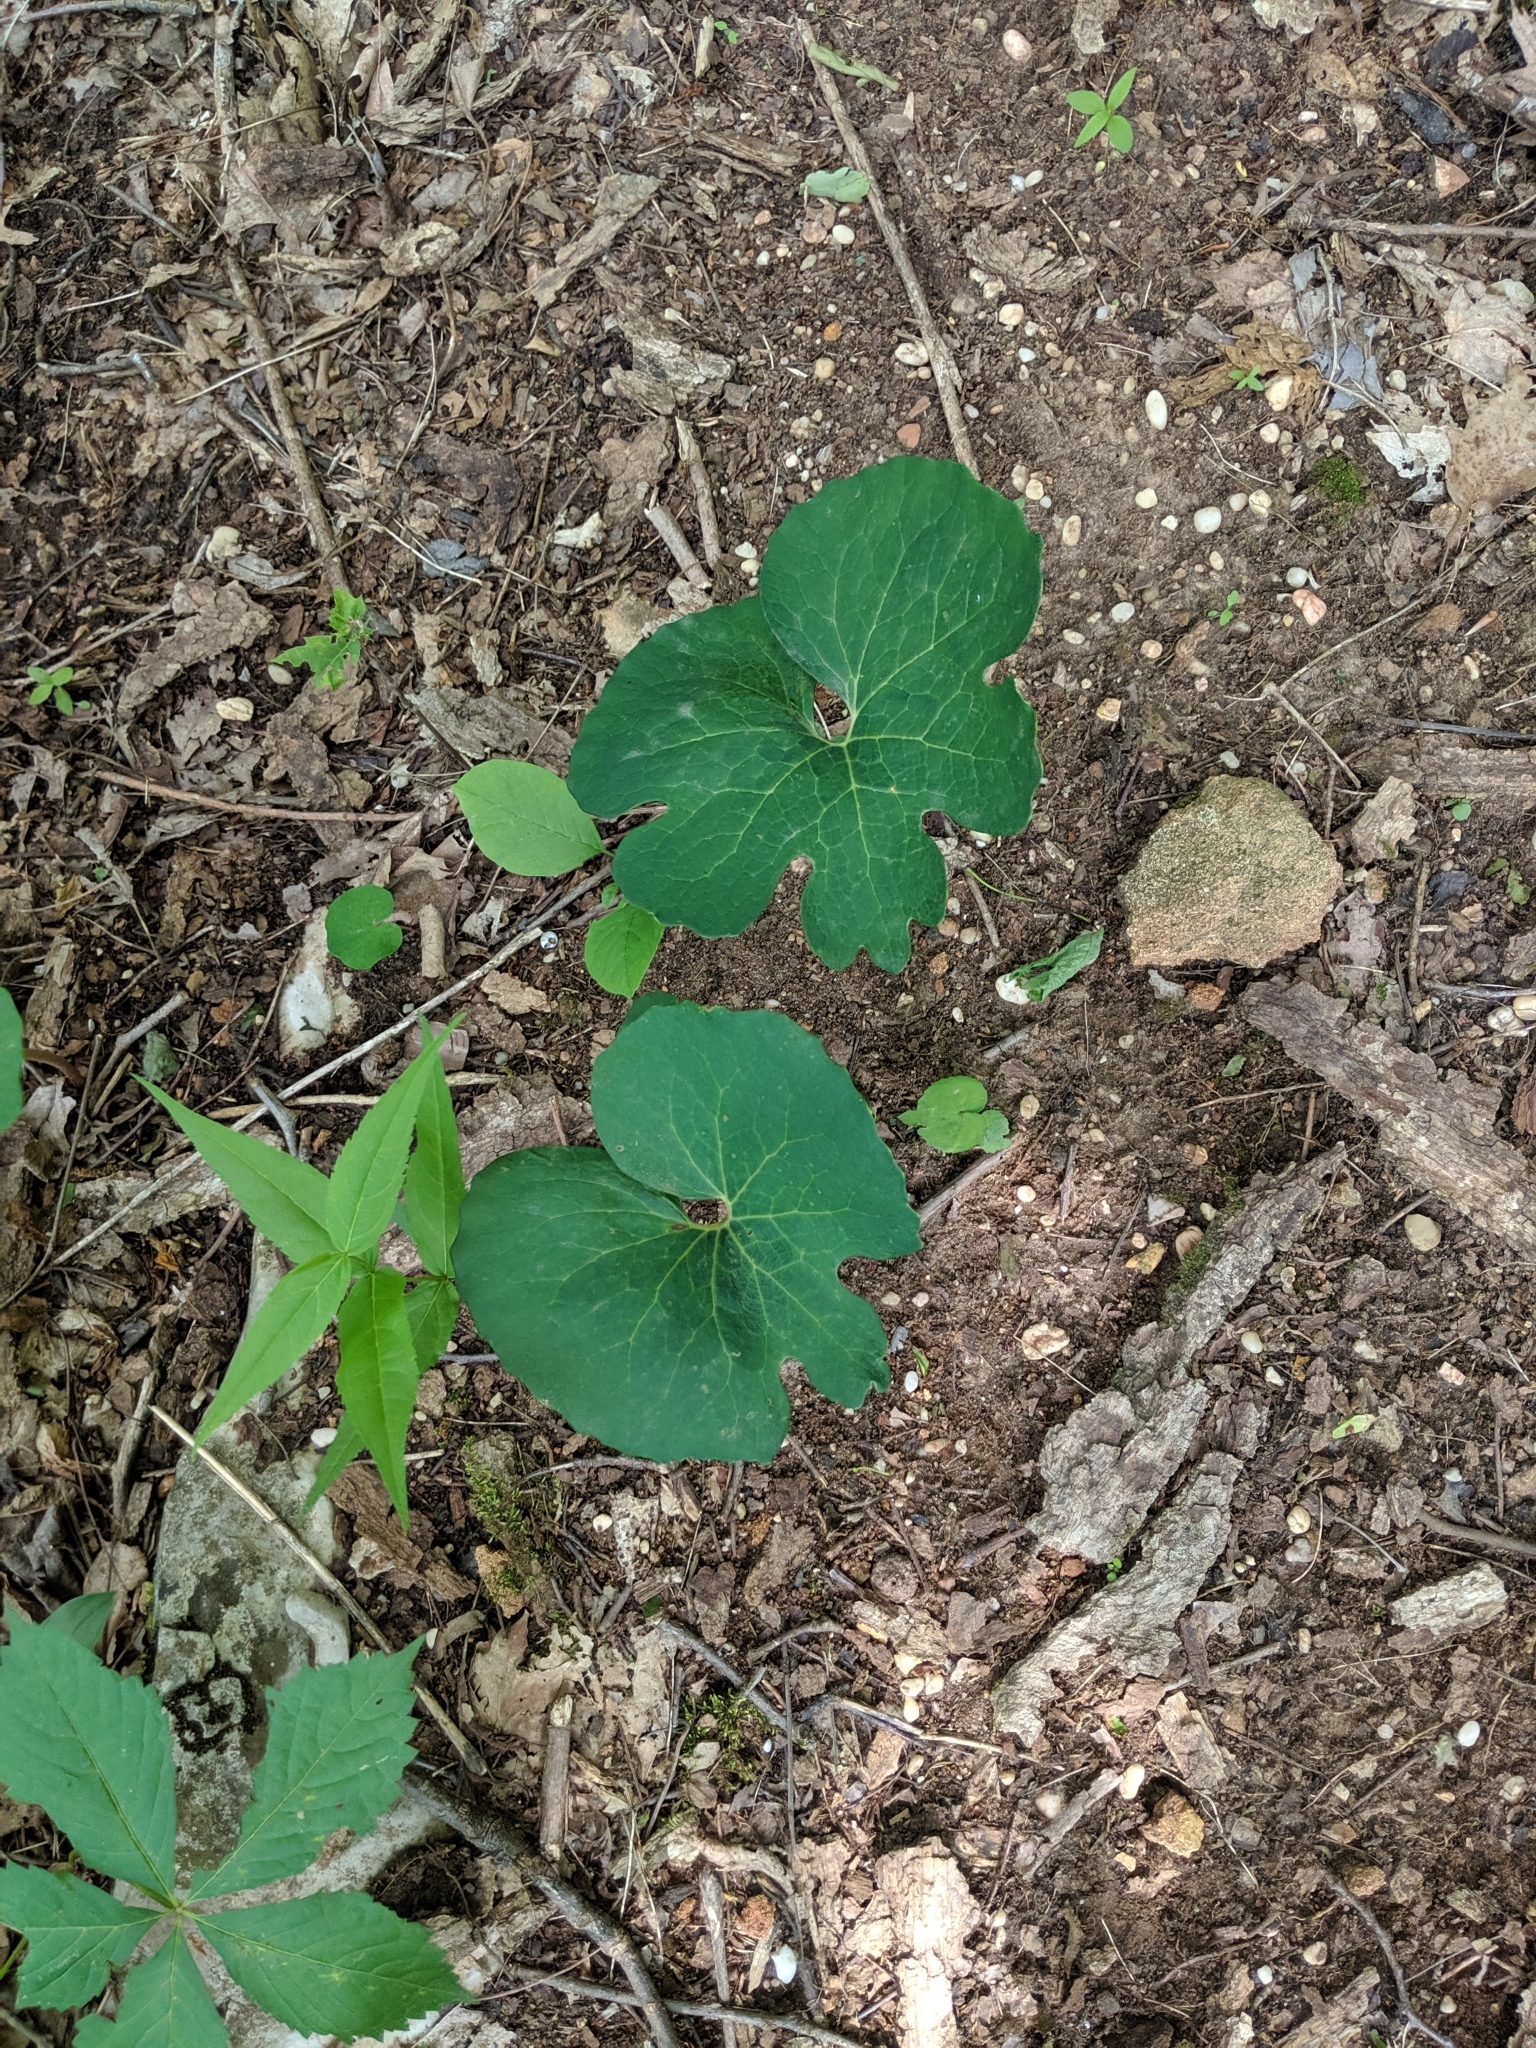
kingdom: Plantae
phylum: Tracheophyta
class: Magnoliopsida
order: Ranunculales
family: Papaveraceae
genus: Sanguinaria
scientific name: Sanguinaria canadensis
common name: Bloodroot
